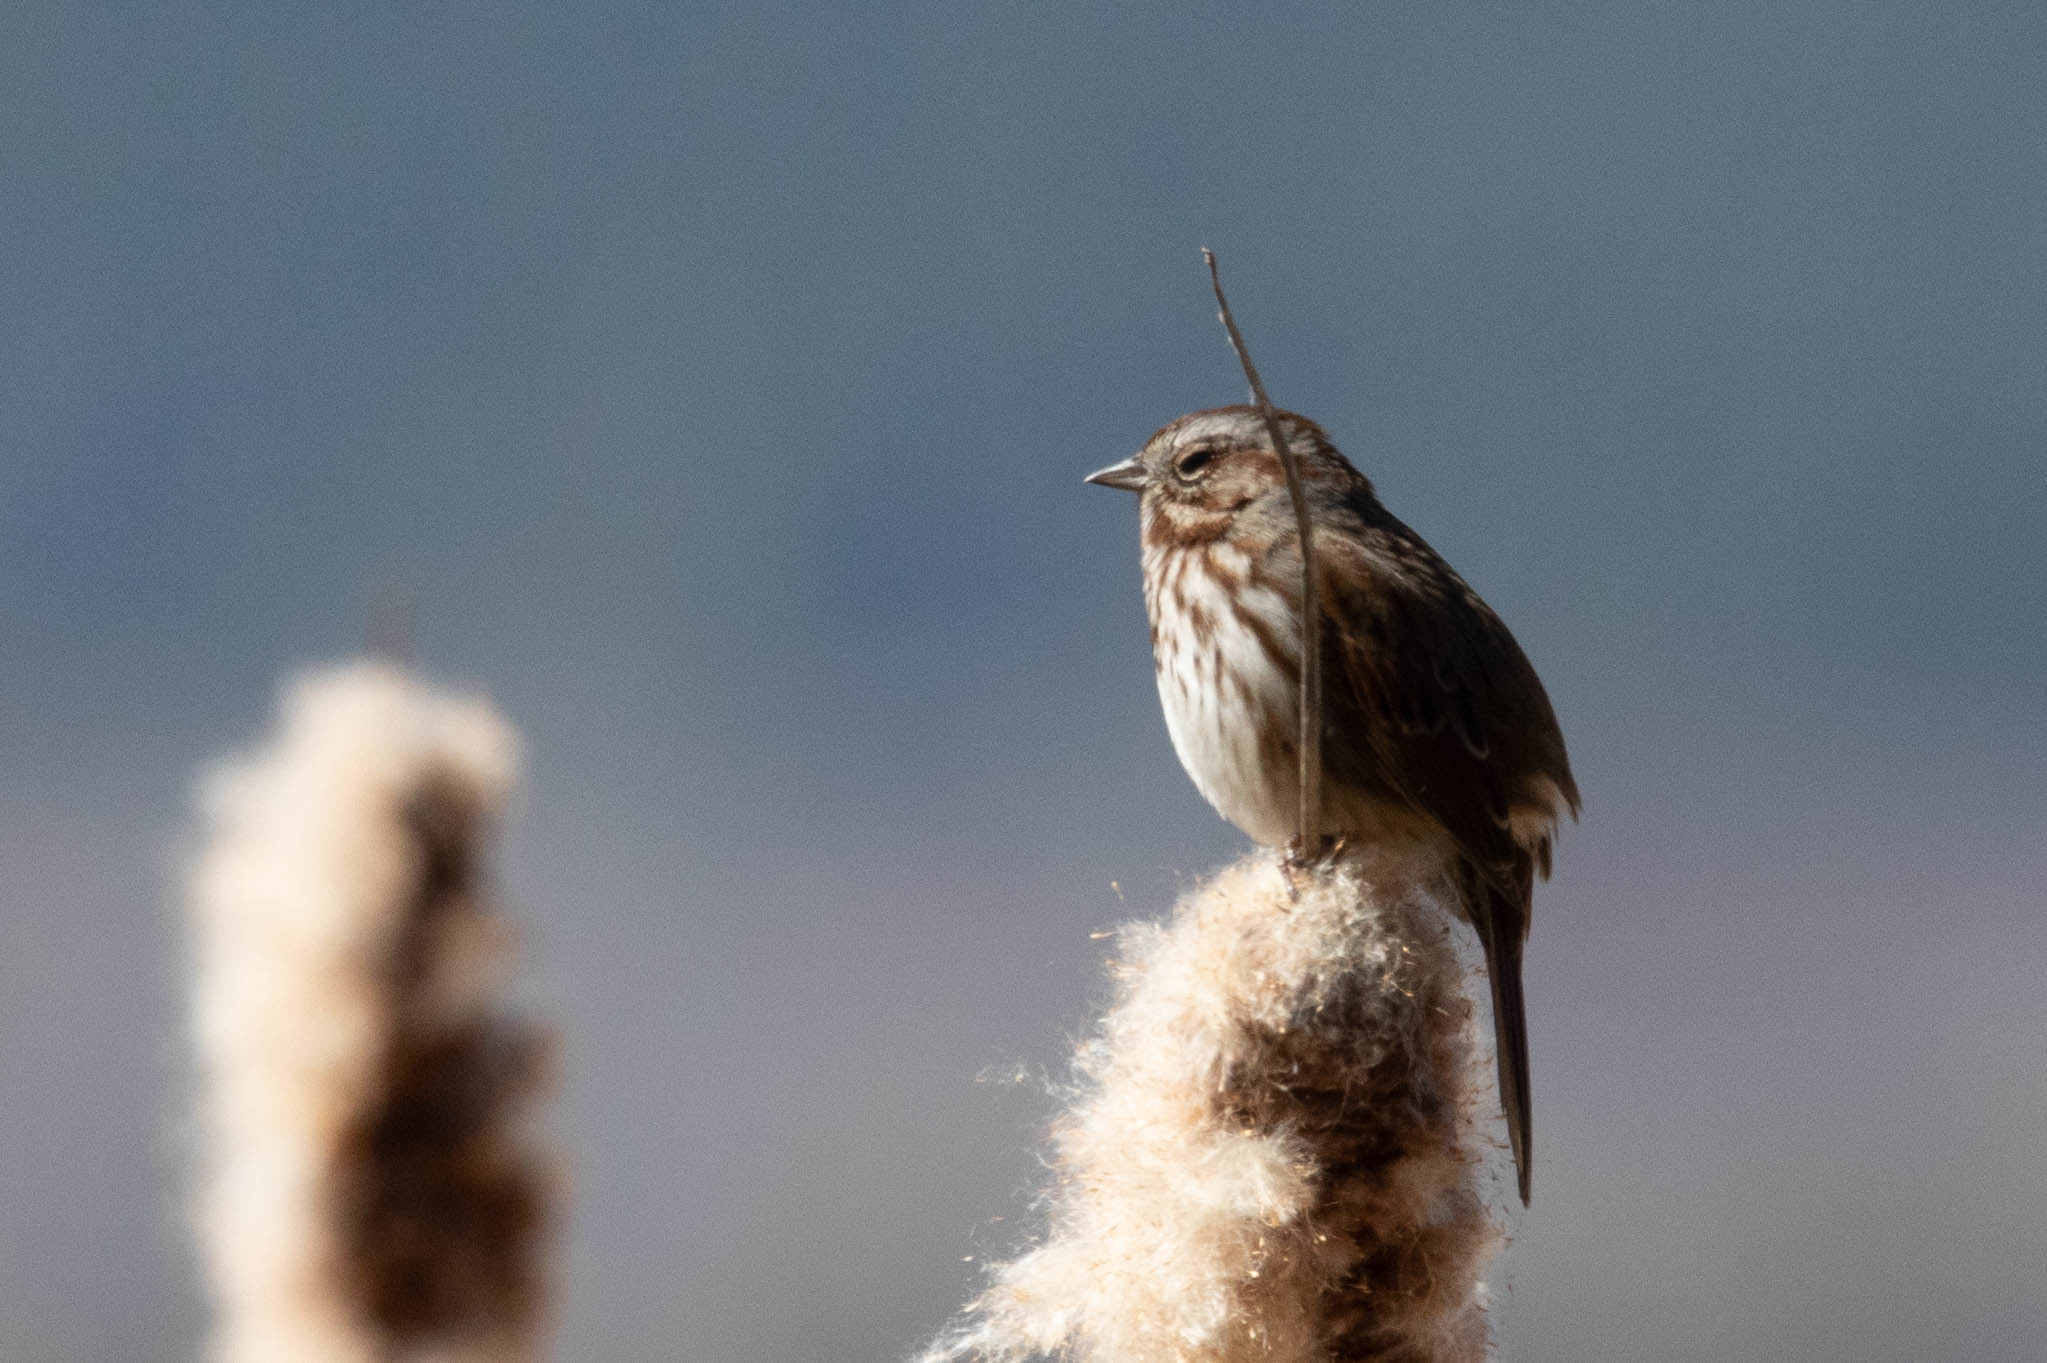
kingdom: Animalia
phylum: Chordata
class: Aves
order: Passeriformes
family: Passerellidae
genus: Melospiza
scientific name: Melospiza melodia
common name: Song sparrow
